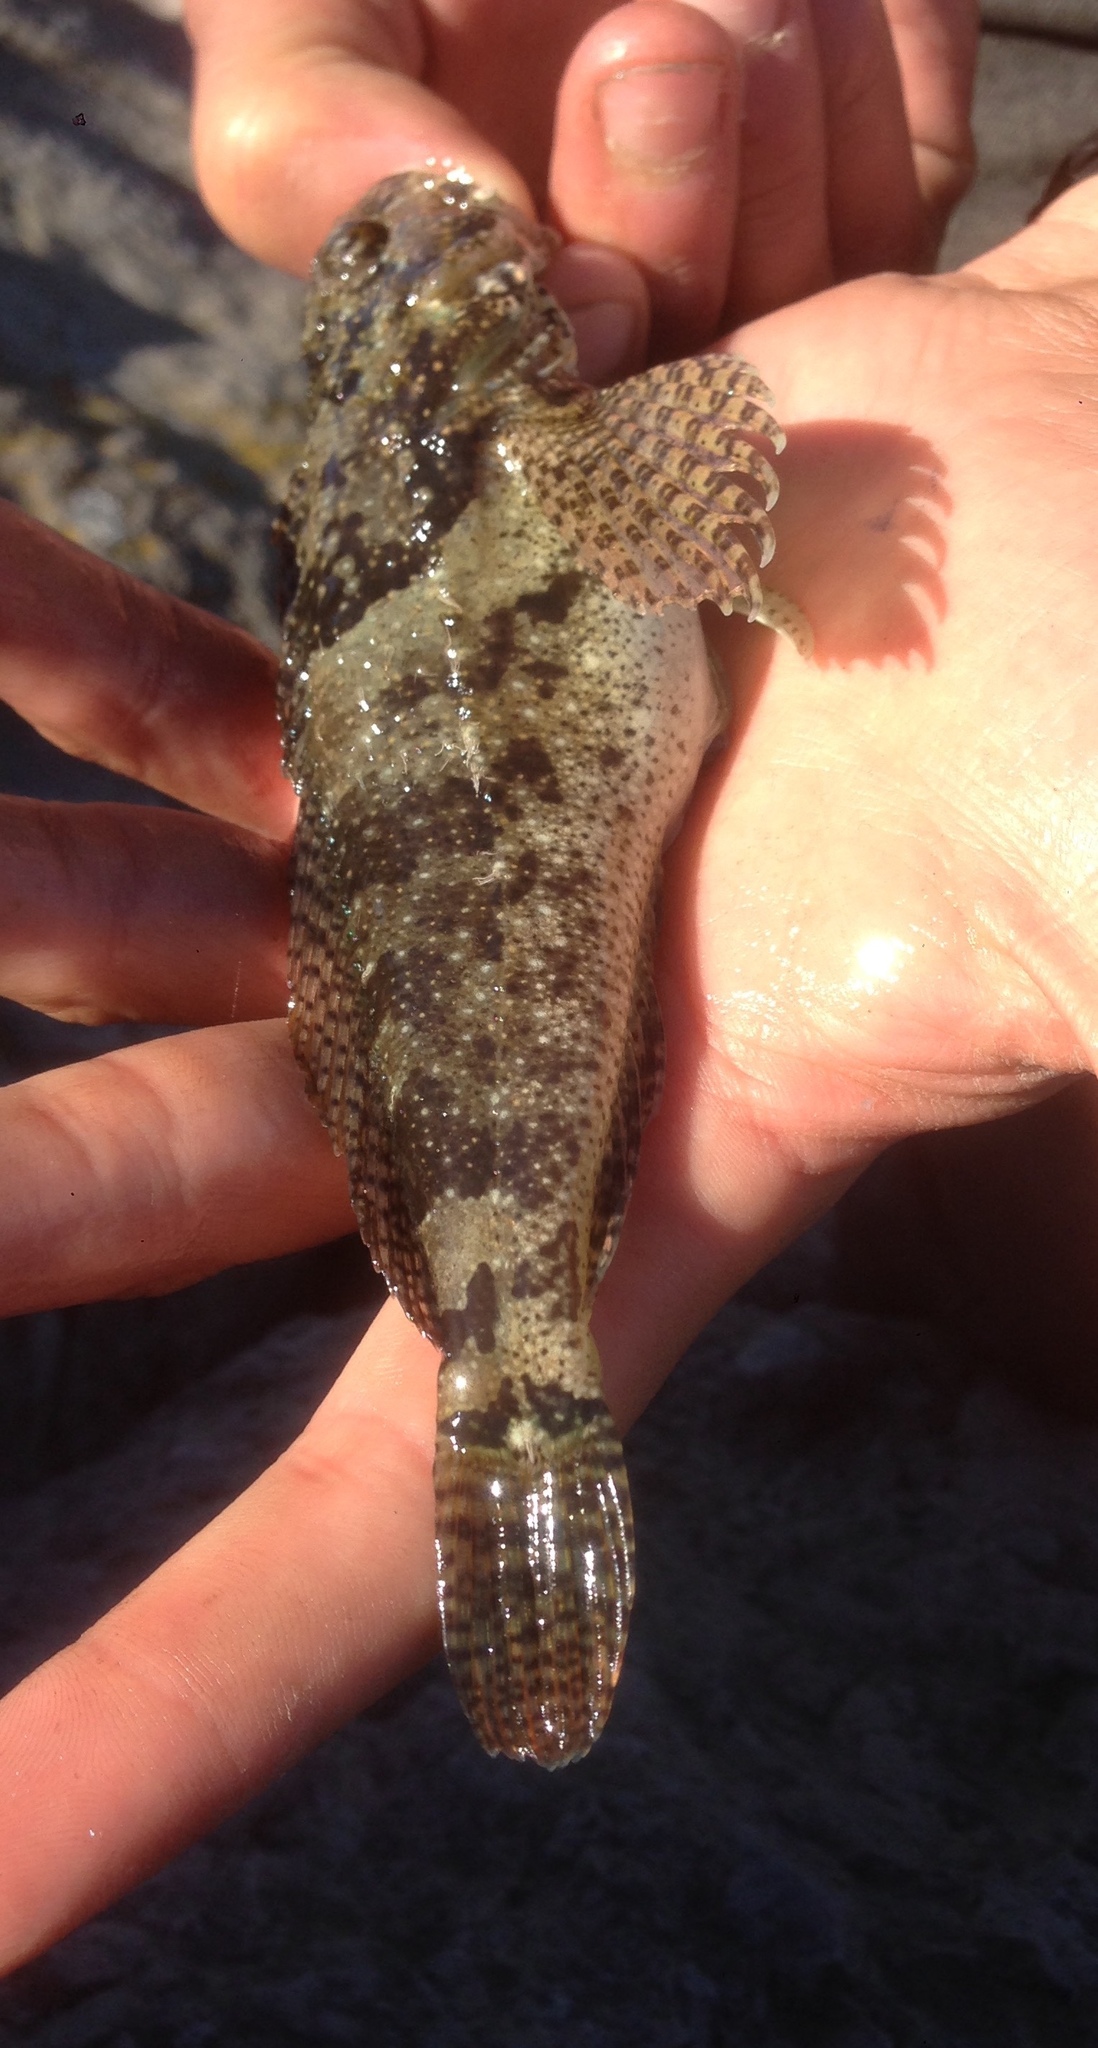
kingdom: Animalia
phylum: Chordata
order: Scorpaeniformes
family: Cottidae
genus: Clinocottus
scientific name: Clinocottus analis
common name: Woolly sculpin
